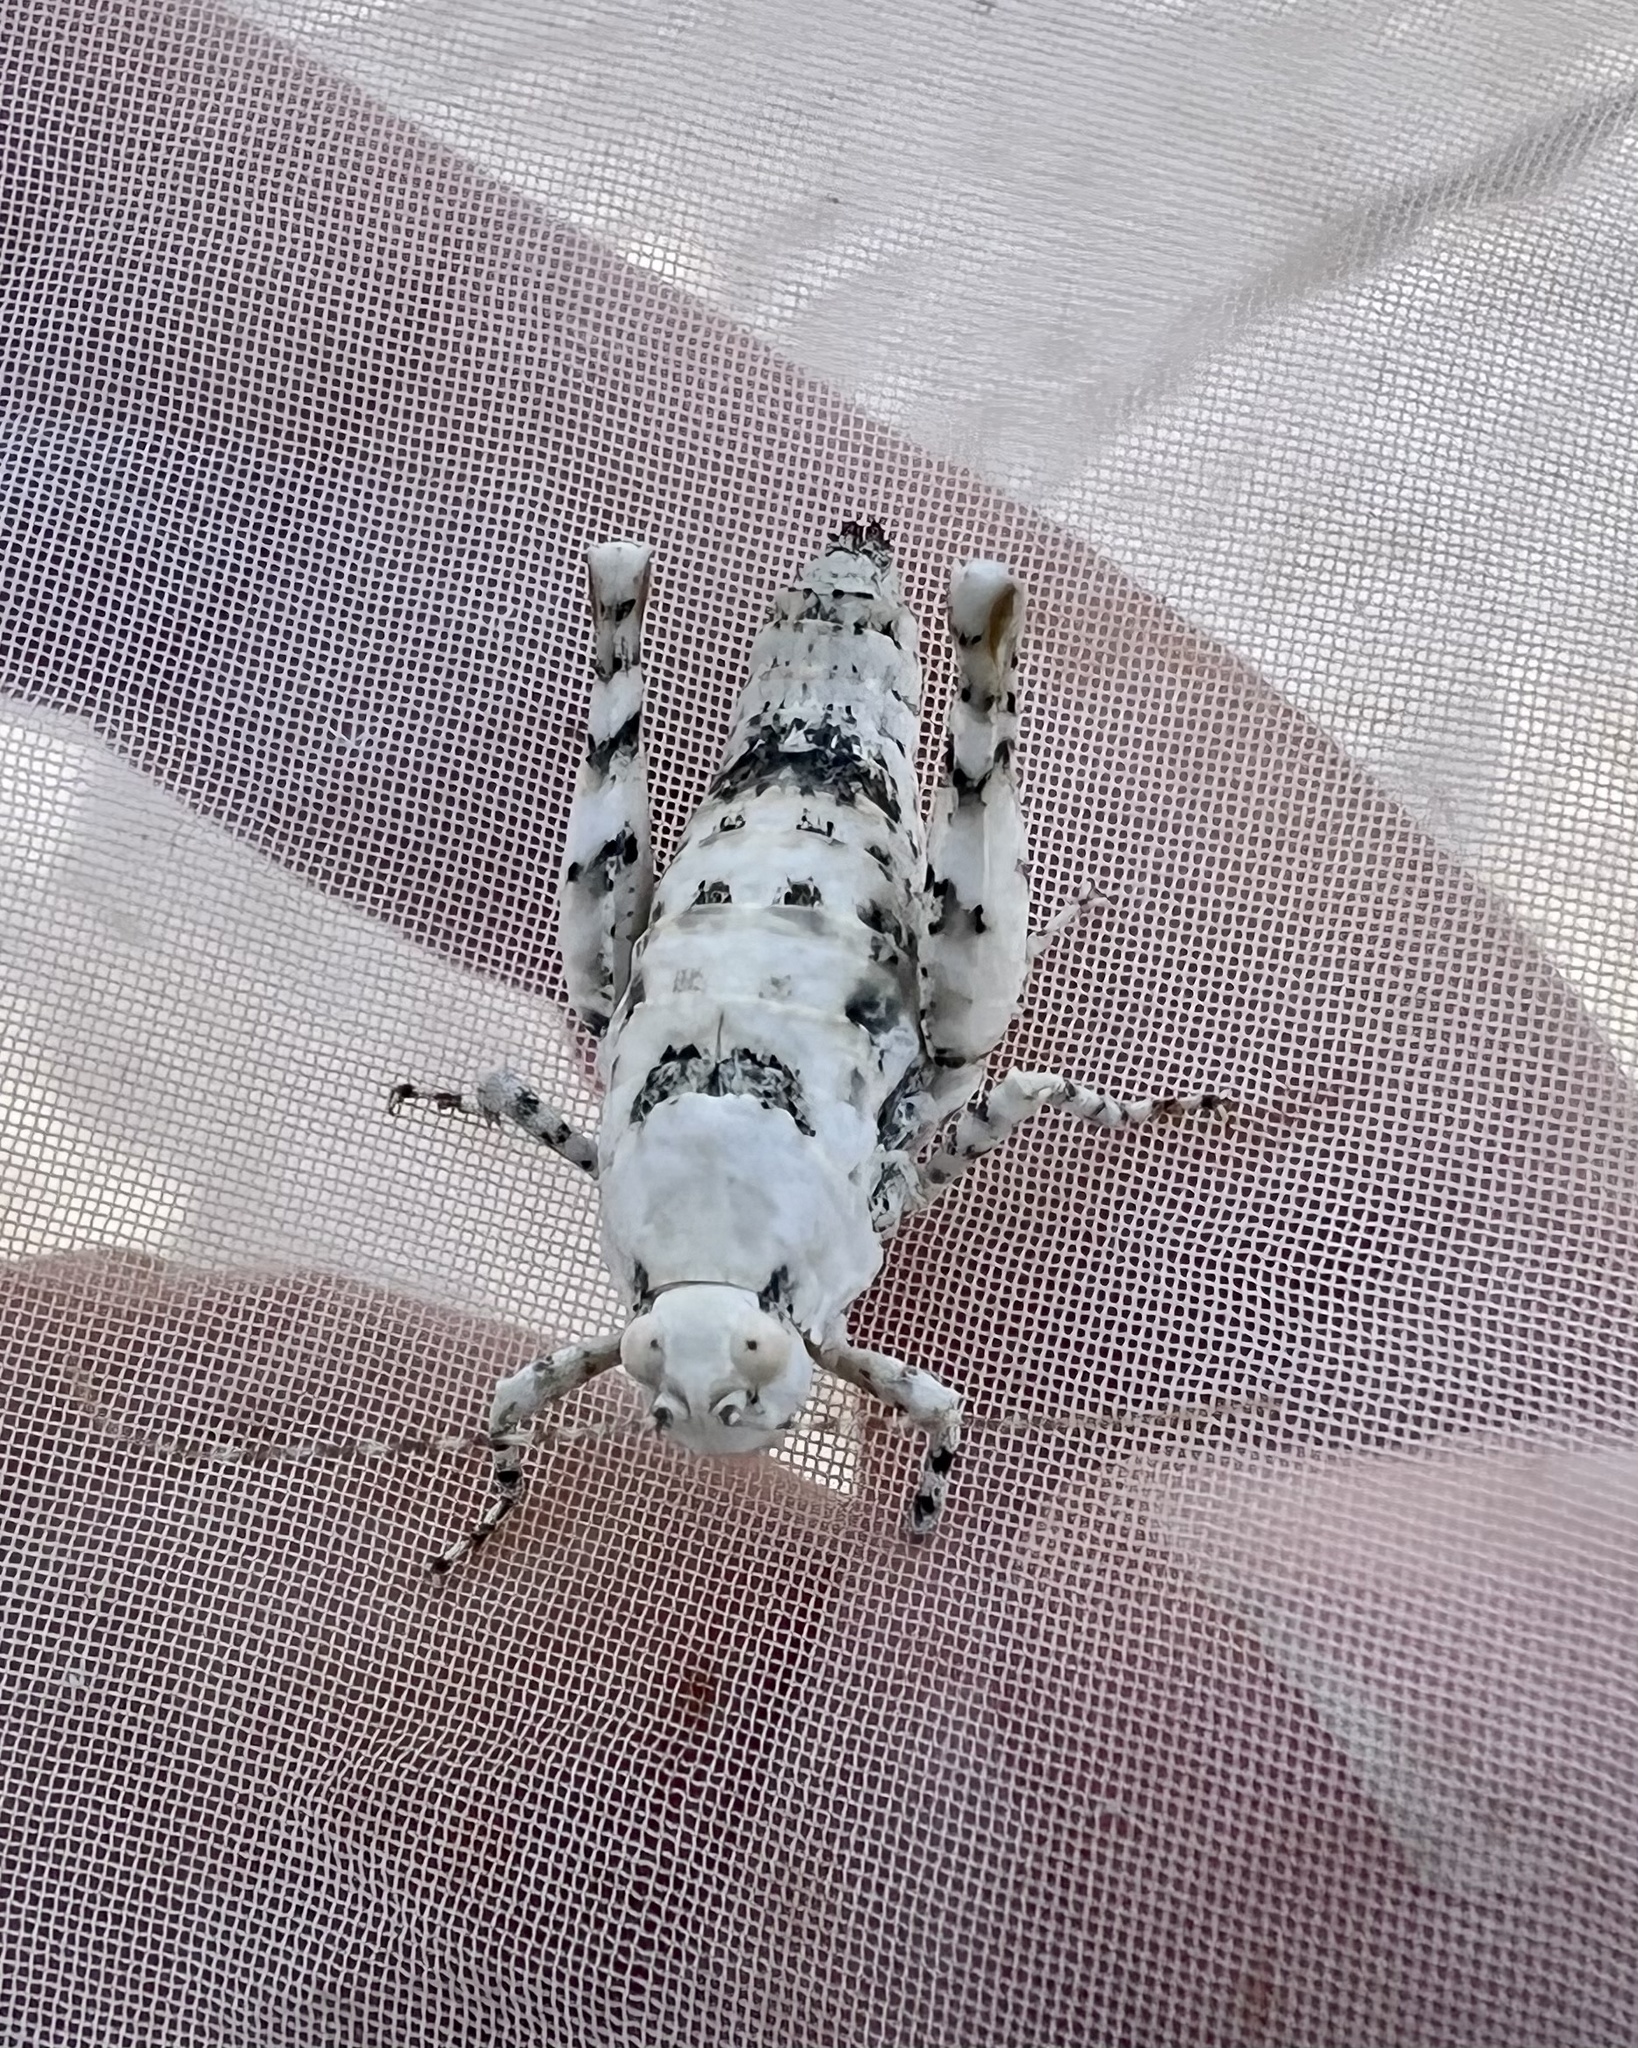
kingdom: Animalia
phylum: Arthropoda
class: Insecta
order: Orthoptera
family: Tanaoceridae
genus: Tanaocerus
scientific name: Tanaocerus koebelei
